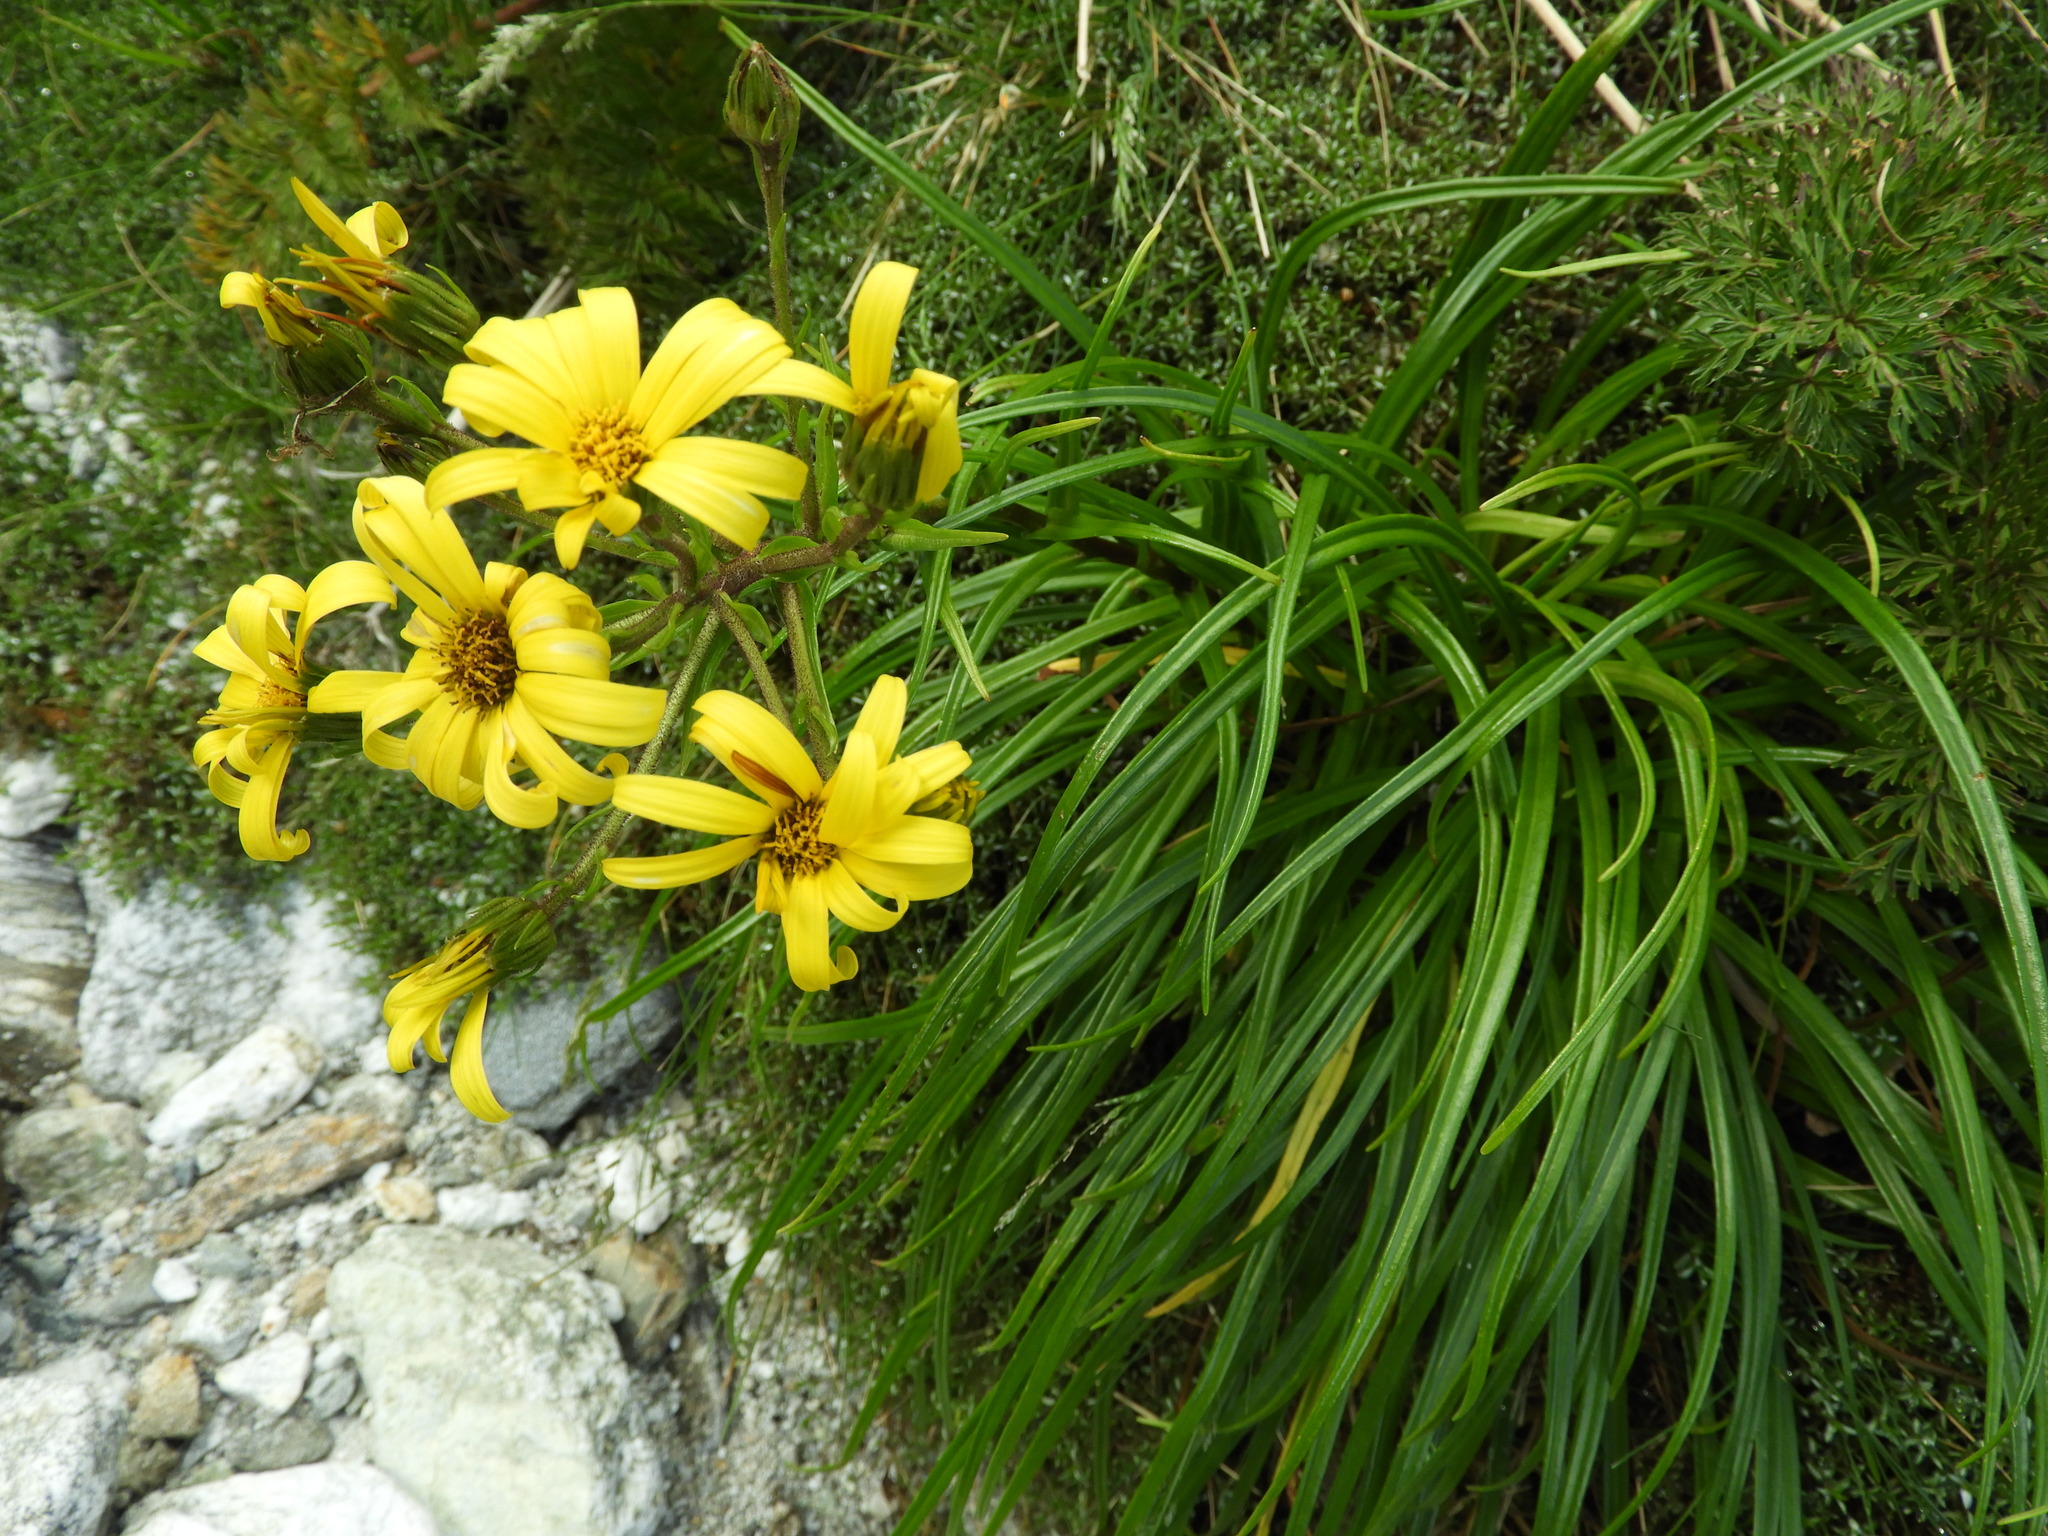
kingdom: Plantae
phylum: Tracheophyta
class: Magnoliopsida
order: Asterales
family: Asteraceae
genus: Dolichoglottis
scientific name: Dolichoglottis lyallii
